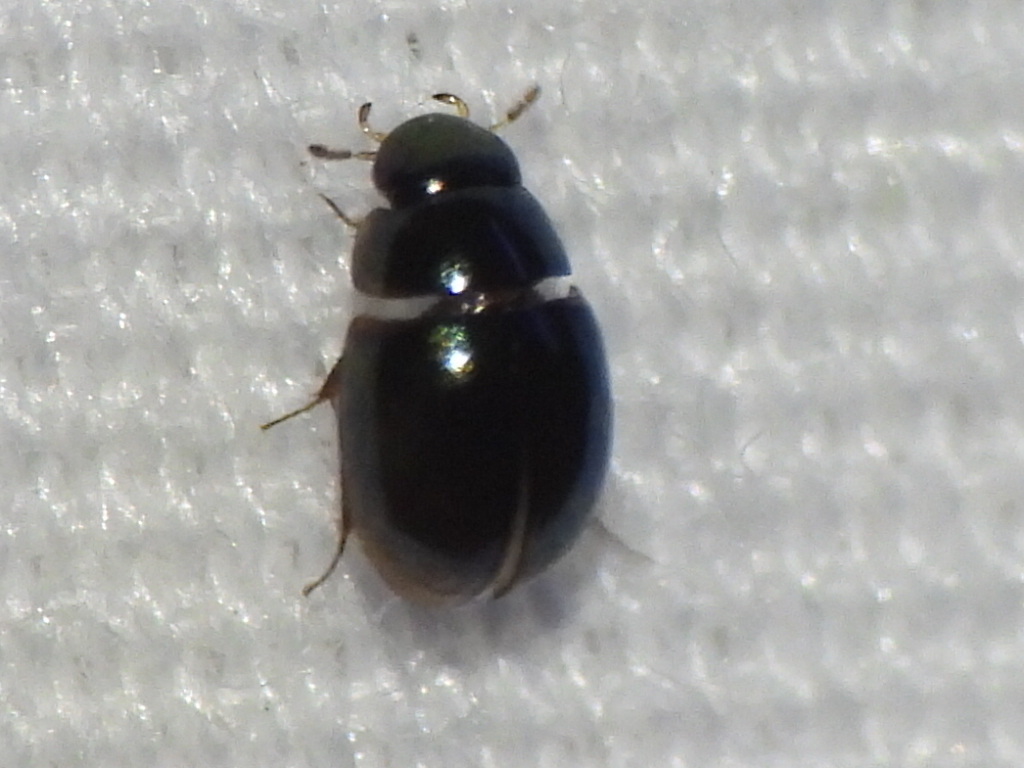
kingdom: Animalia
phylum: Arthropoda
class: Insecta
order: Coleoptera
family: Hydrophilidae
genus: Paracymus
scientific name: Paracymus
